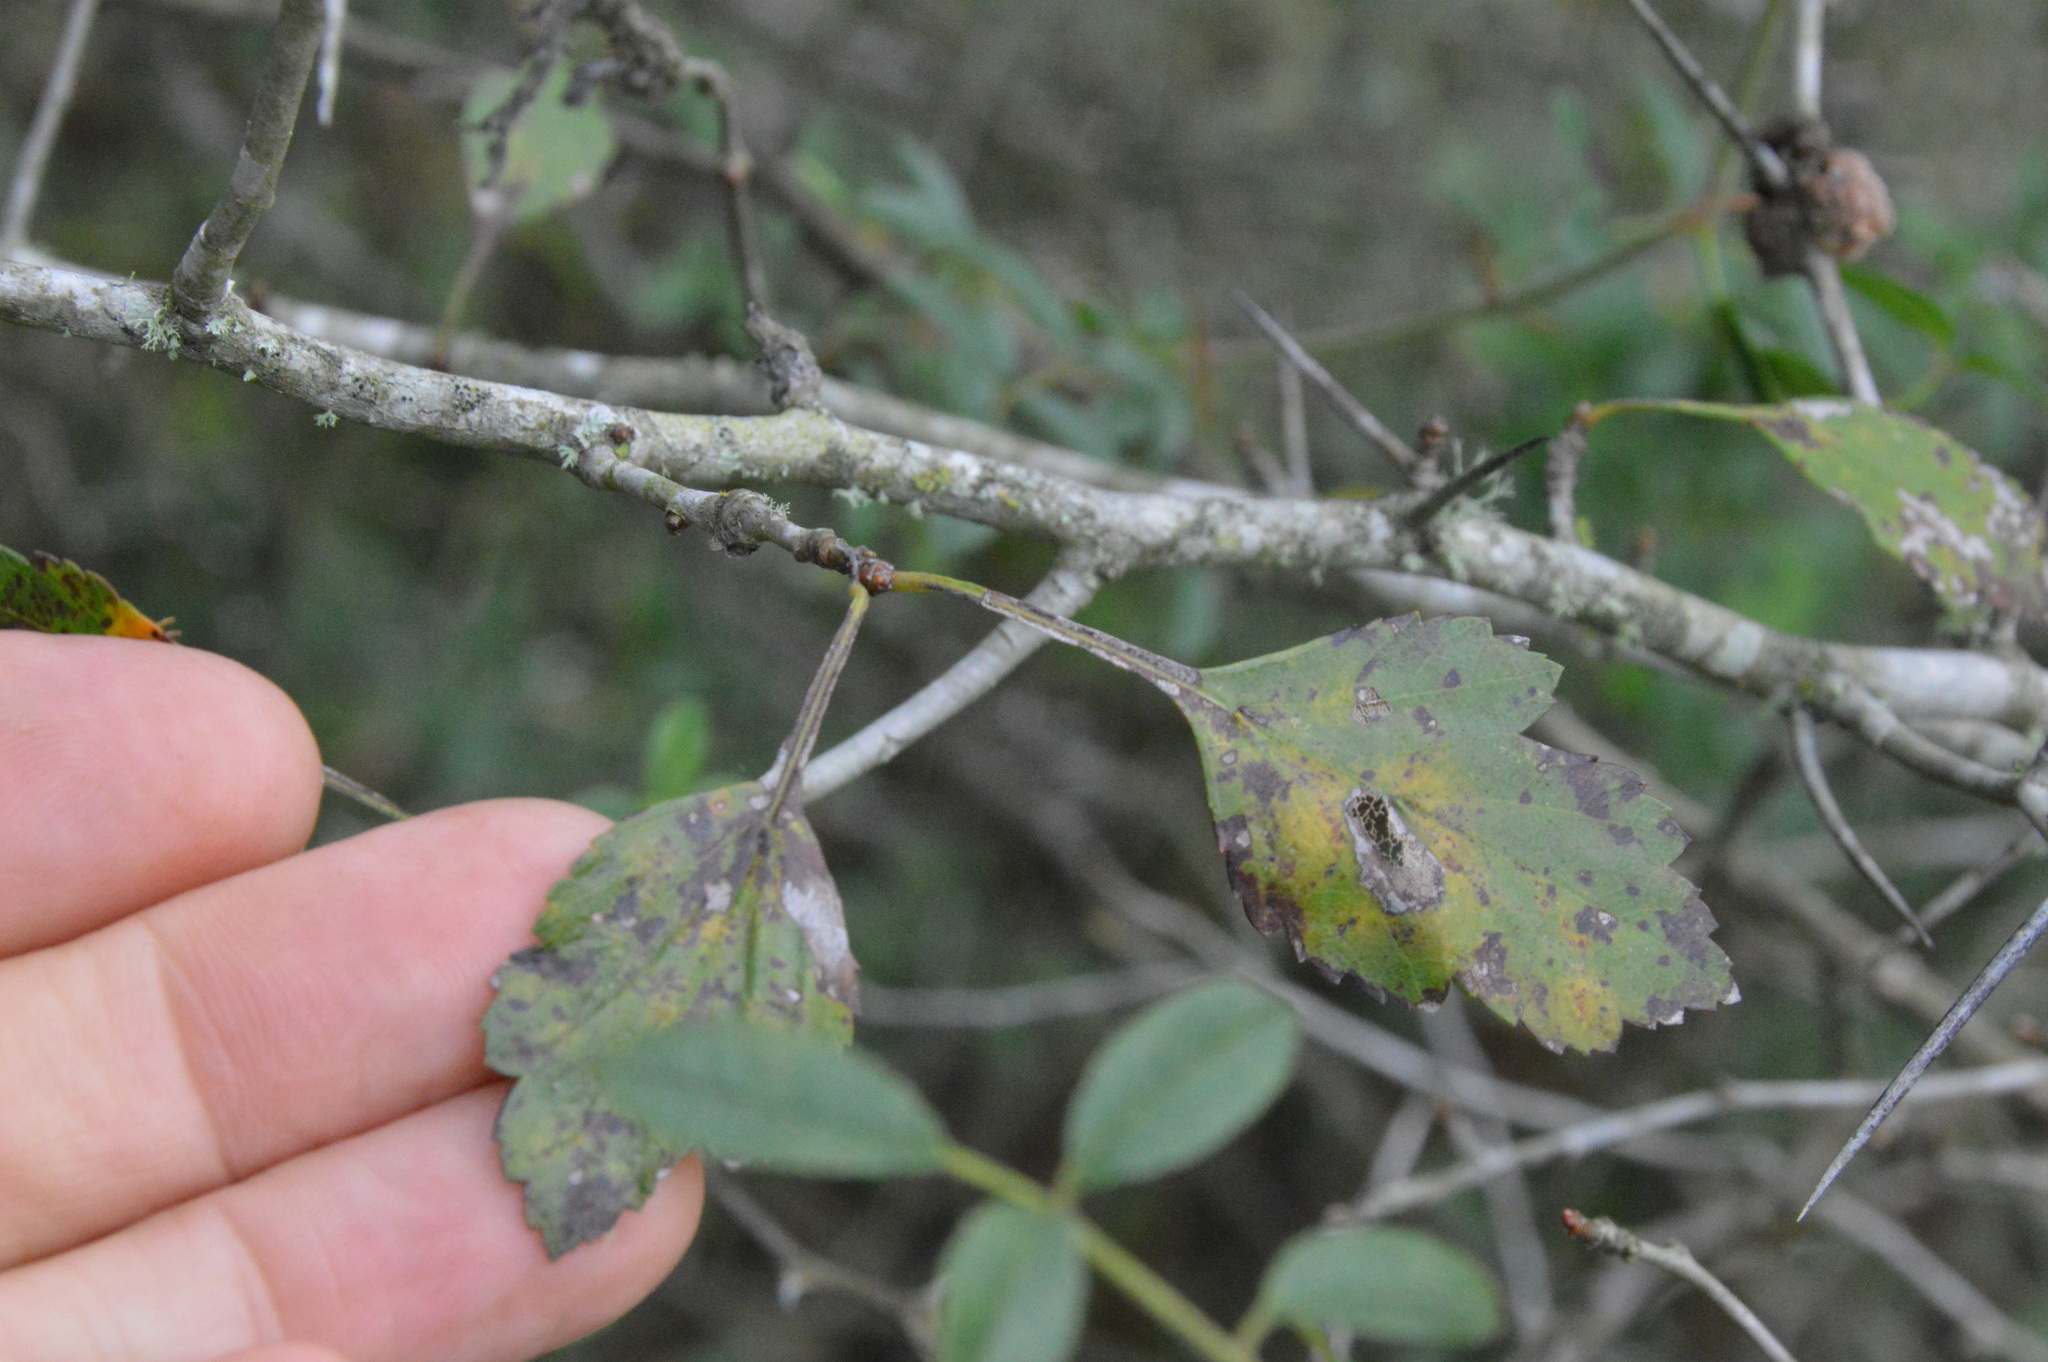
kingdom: Plantae
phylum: Tracheophyta
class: Magnoliopsida
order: Rosales
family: Rosaceae
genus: Crataegus
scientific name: Crataegus viridis
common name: Southernthorn
